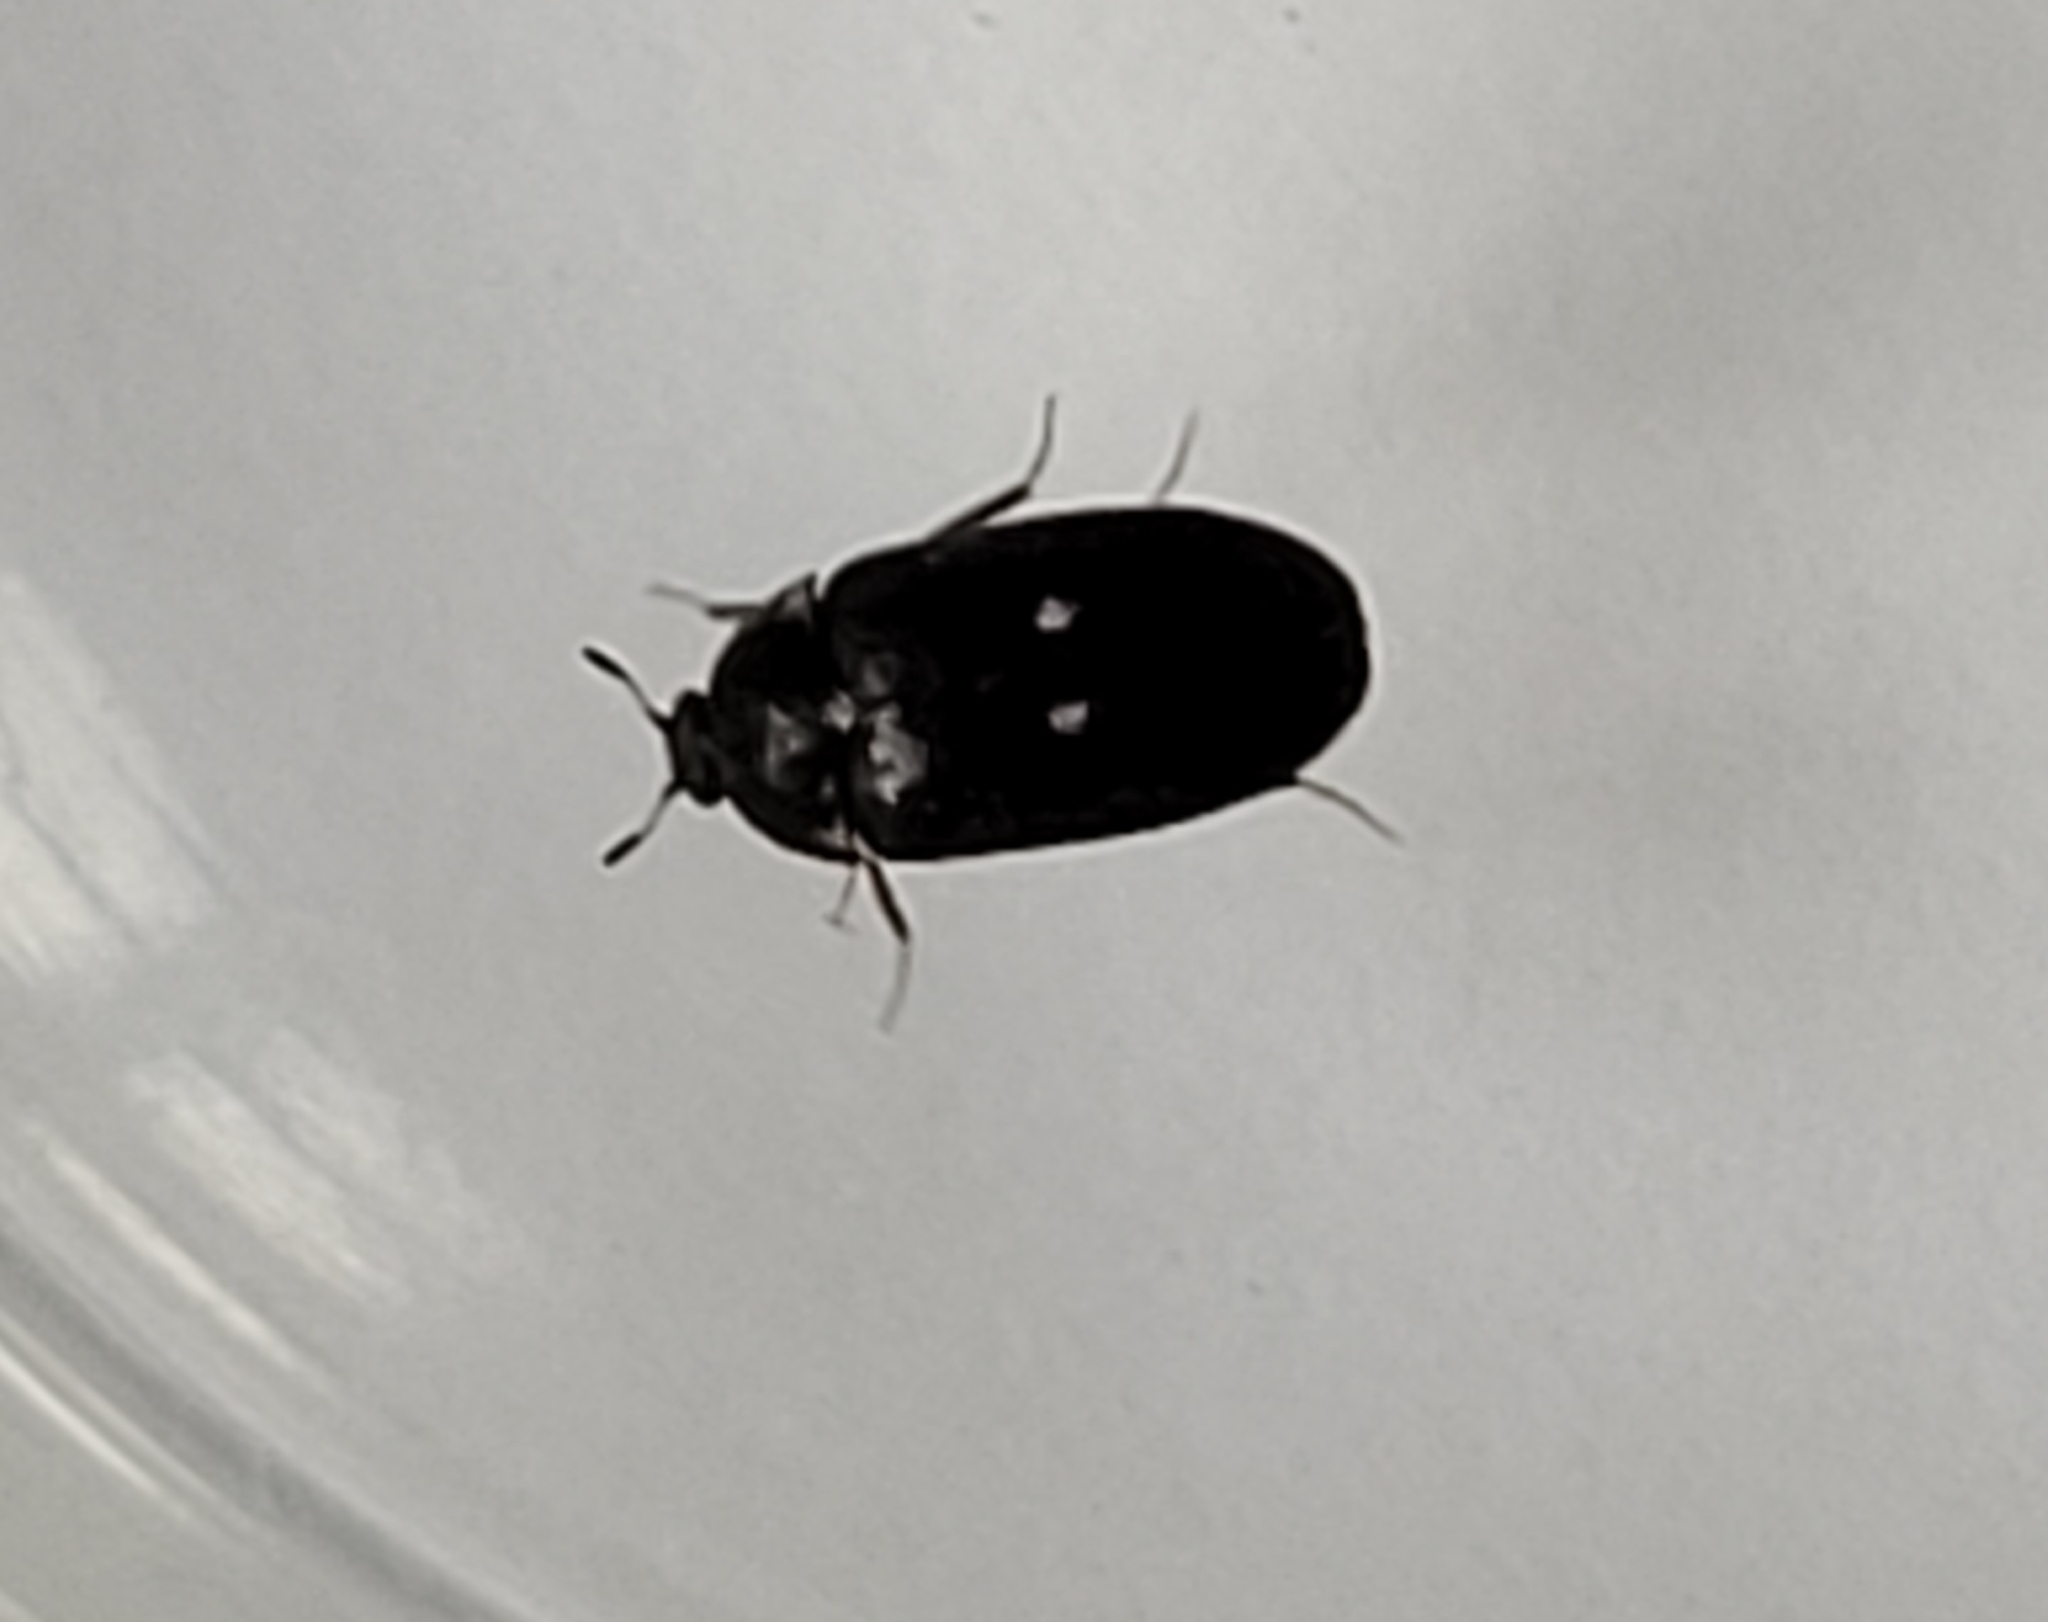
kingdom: Animalia
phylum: Arthropoda
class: Insecta
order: Coleoptera
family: Dermestidae
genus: Attagenus
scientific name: Attagenus pellio
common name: Two-spotted carpet beetle
